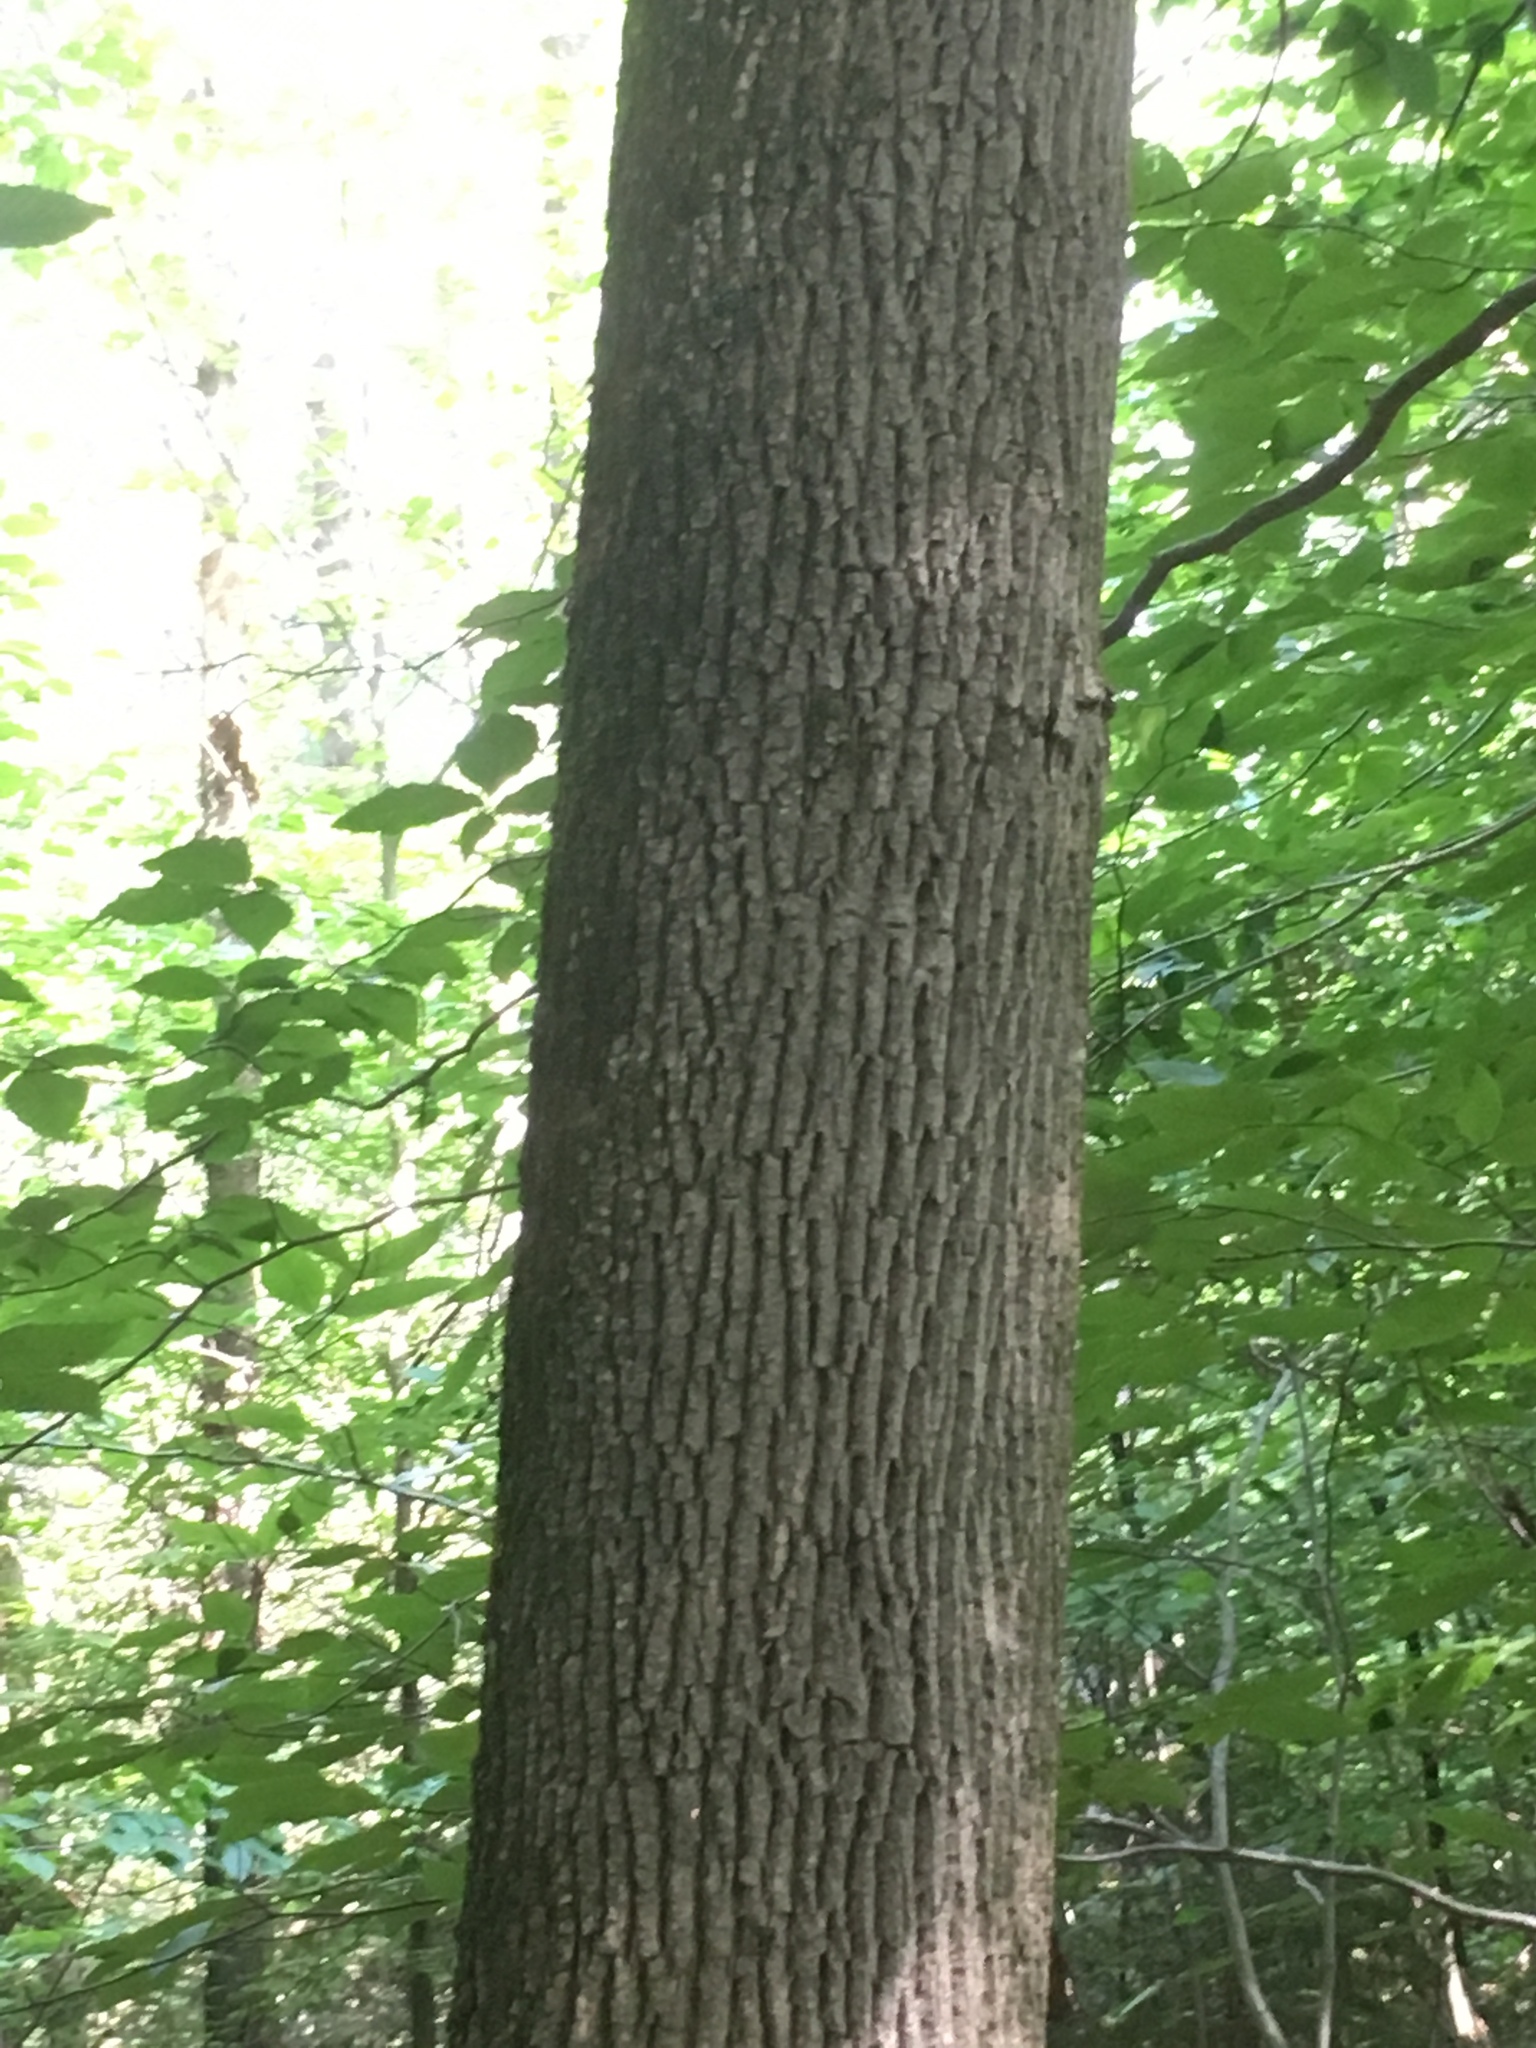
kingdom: Plantae
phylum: Tracheophyta
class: Magnoliopsida
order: Lamiales
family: Oleaceae
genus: Fraxinus
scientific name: Fraxinus americana
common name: White ash
